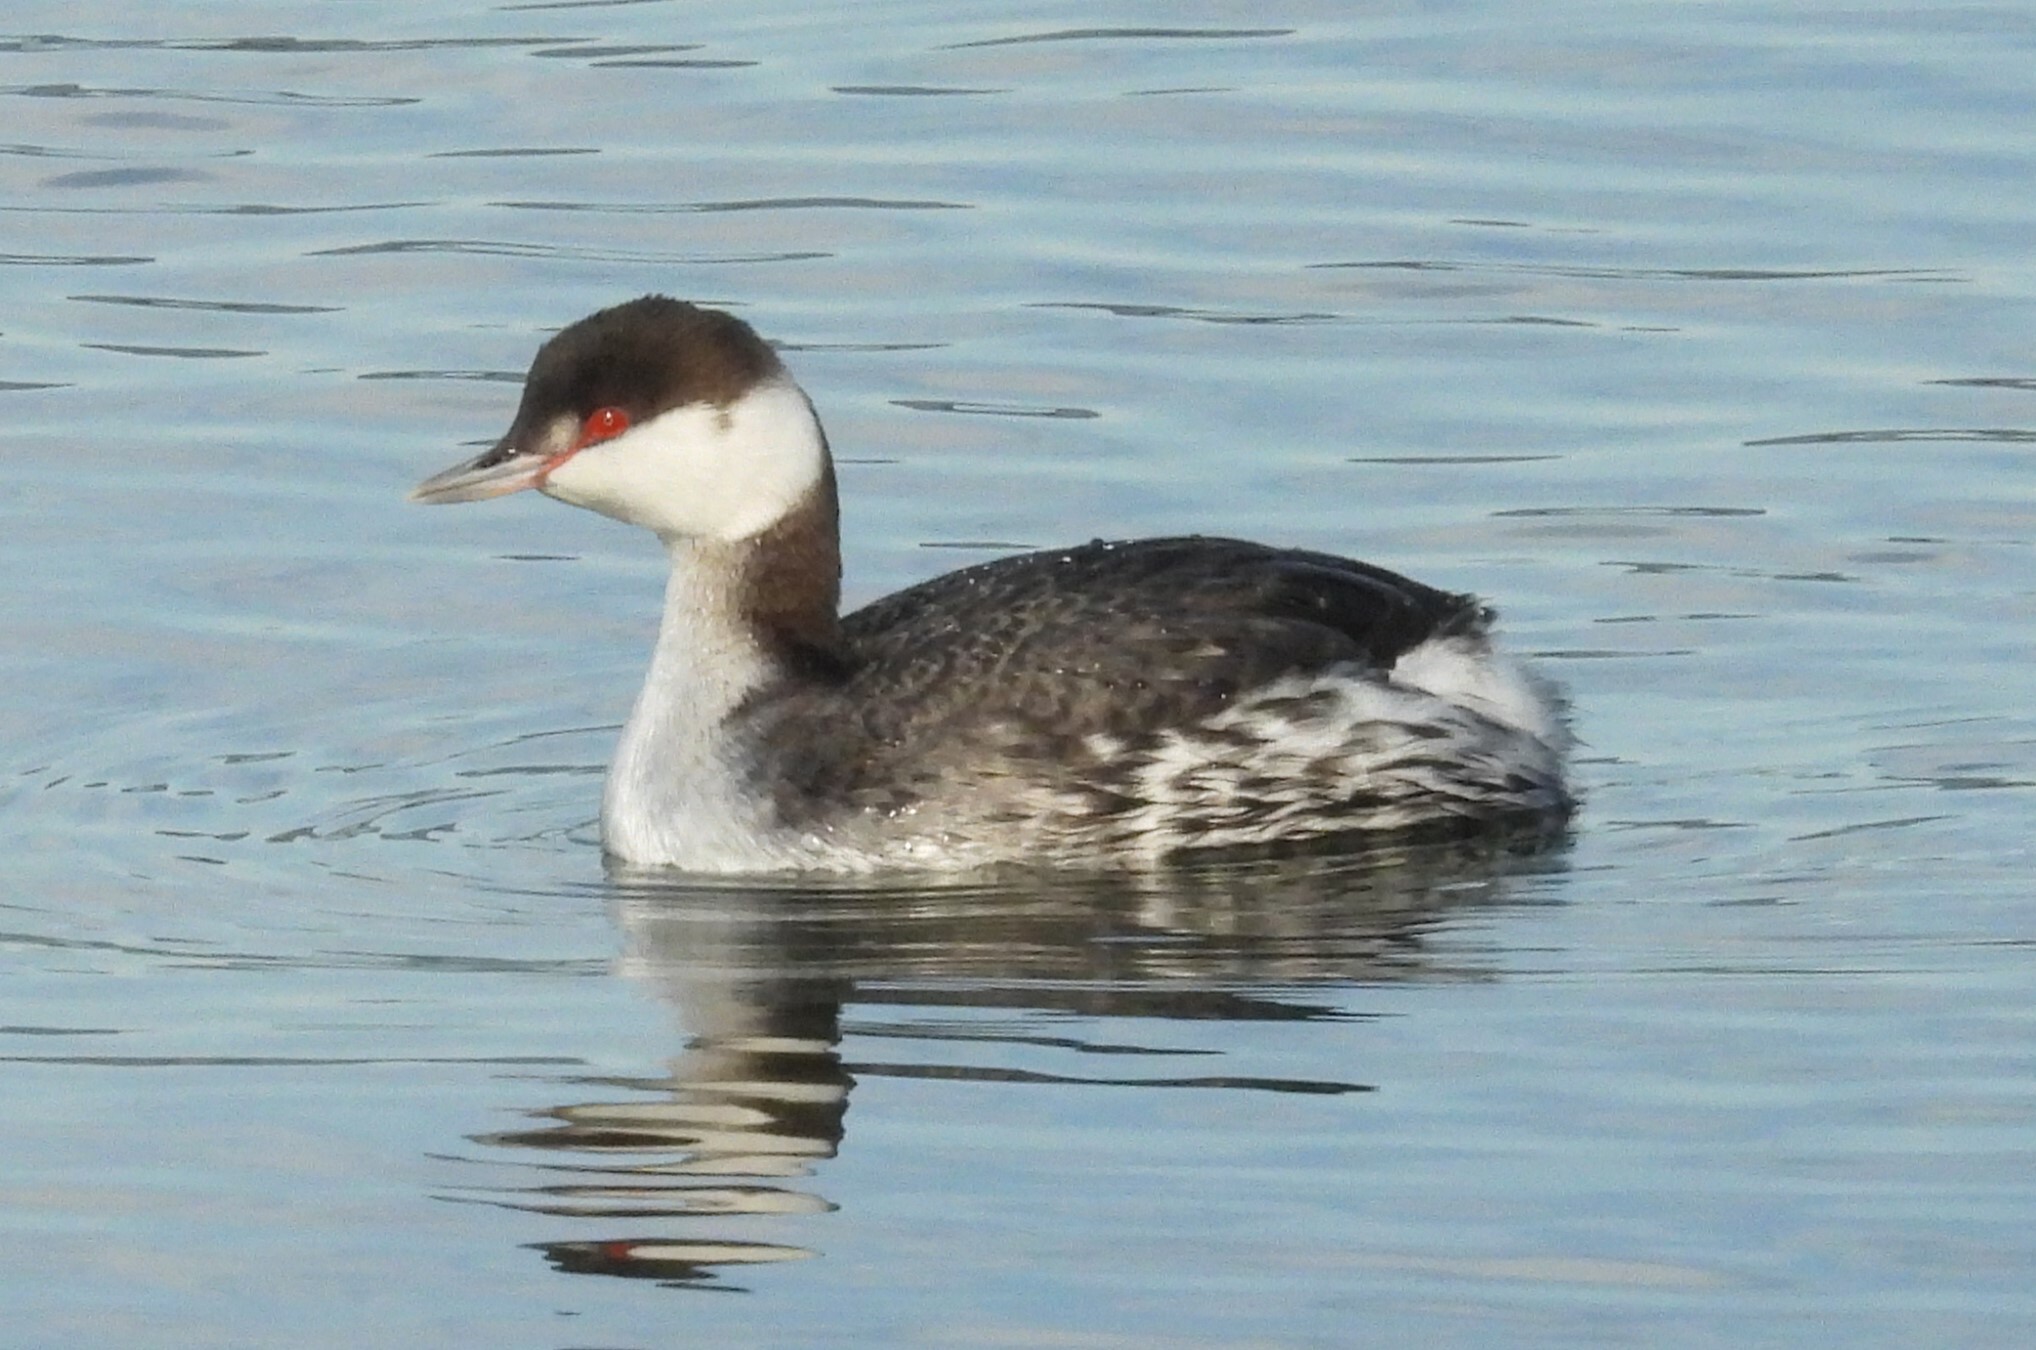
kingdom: Animalia
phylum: Chordata
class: Aves
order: Podicipediformes
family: Podicipedidae
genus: Podiceps
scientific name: Podiceps auritus
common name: Horned grebe
